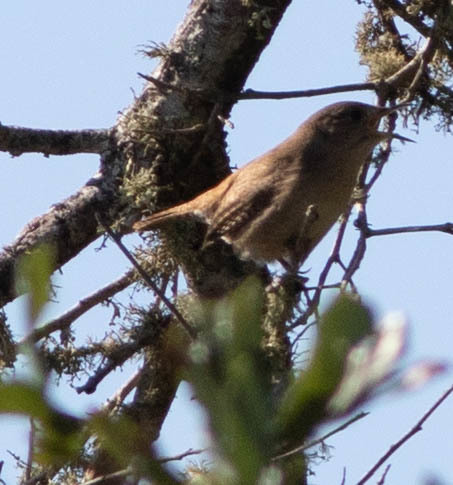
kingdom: Animalia
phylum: Chordata
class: Aves
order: Passeriformes
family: Troglodytidae
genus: Troglodytes
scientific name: Troglodytes aedon
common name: House wren
